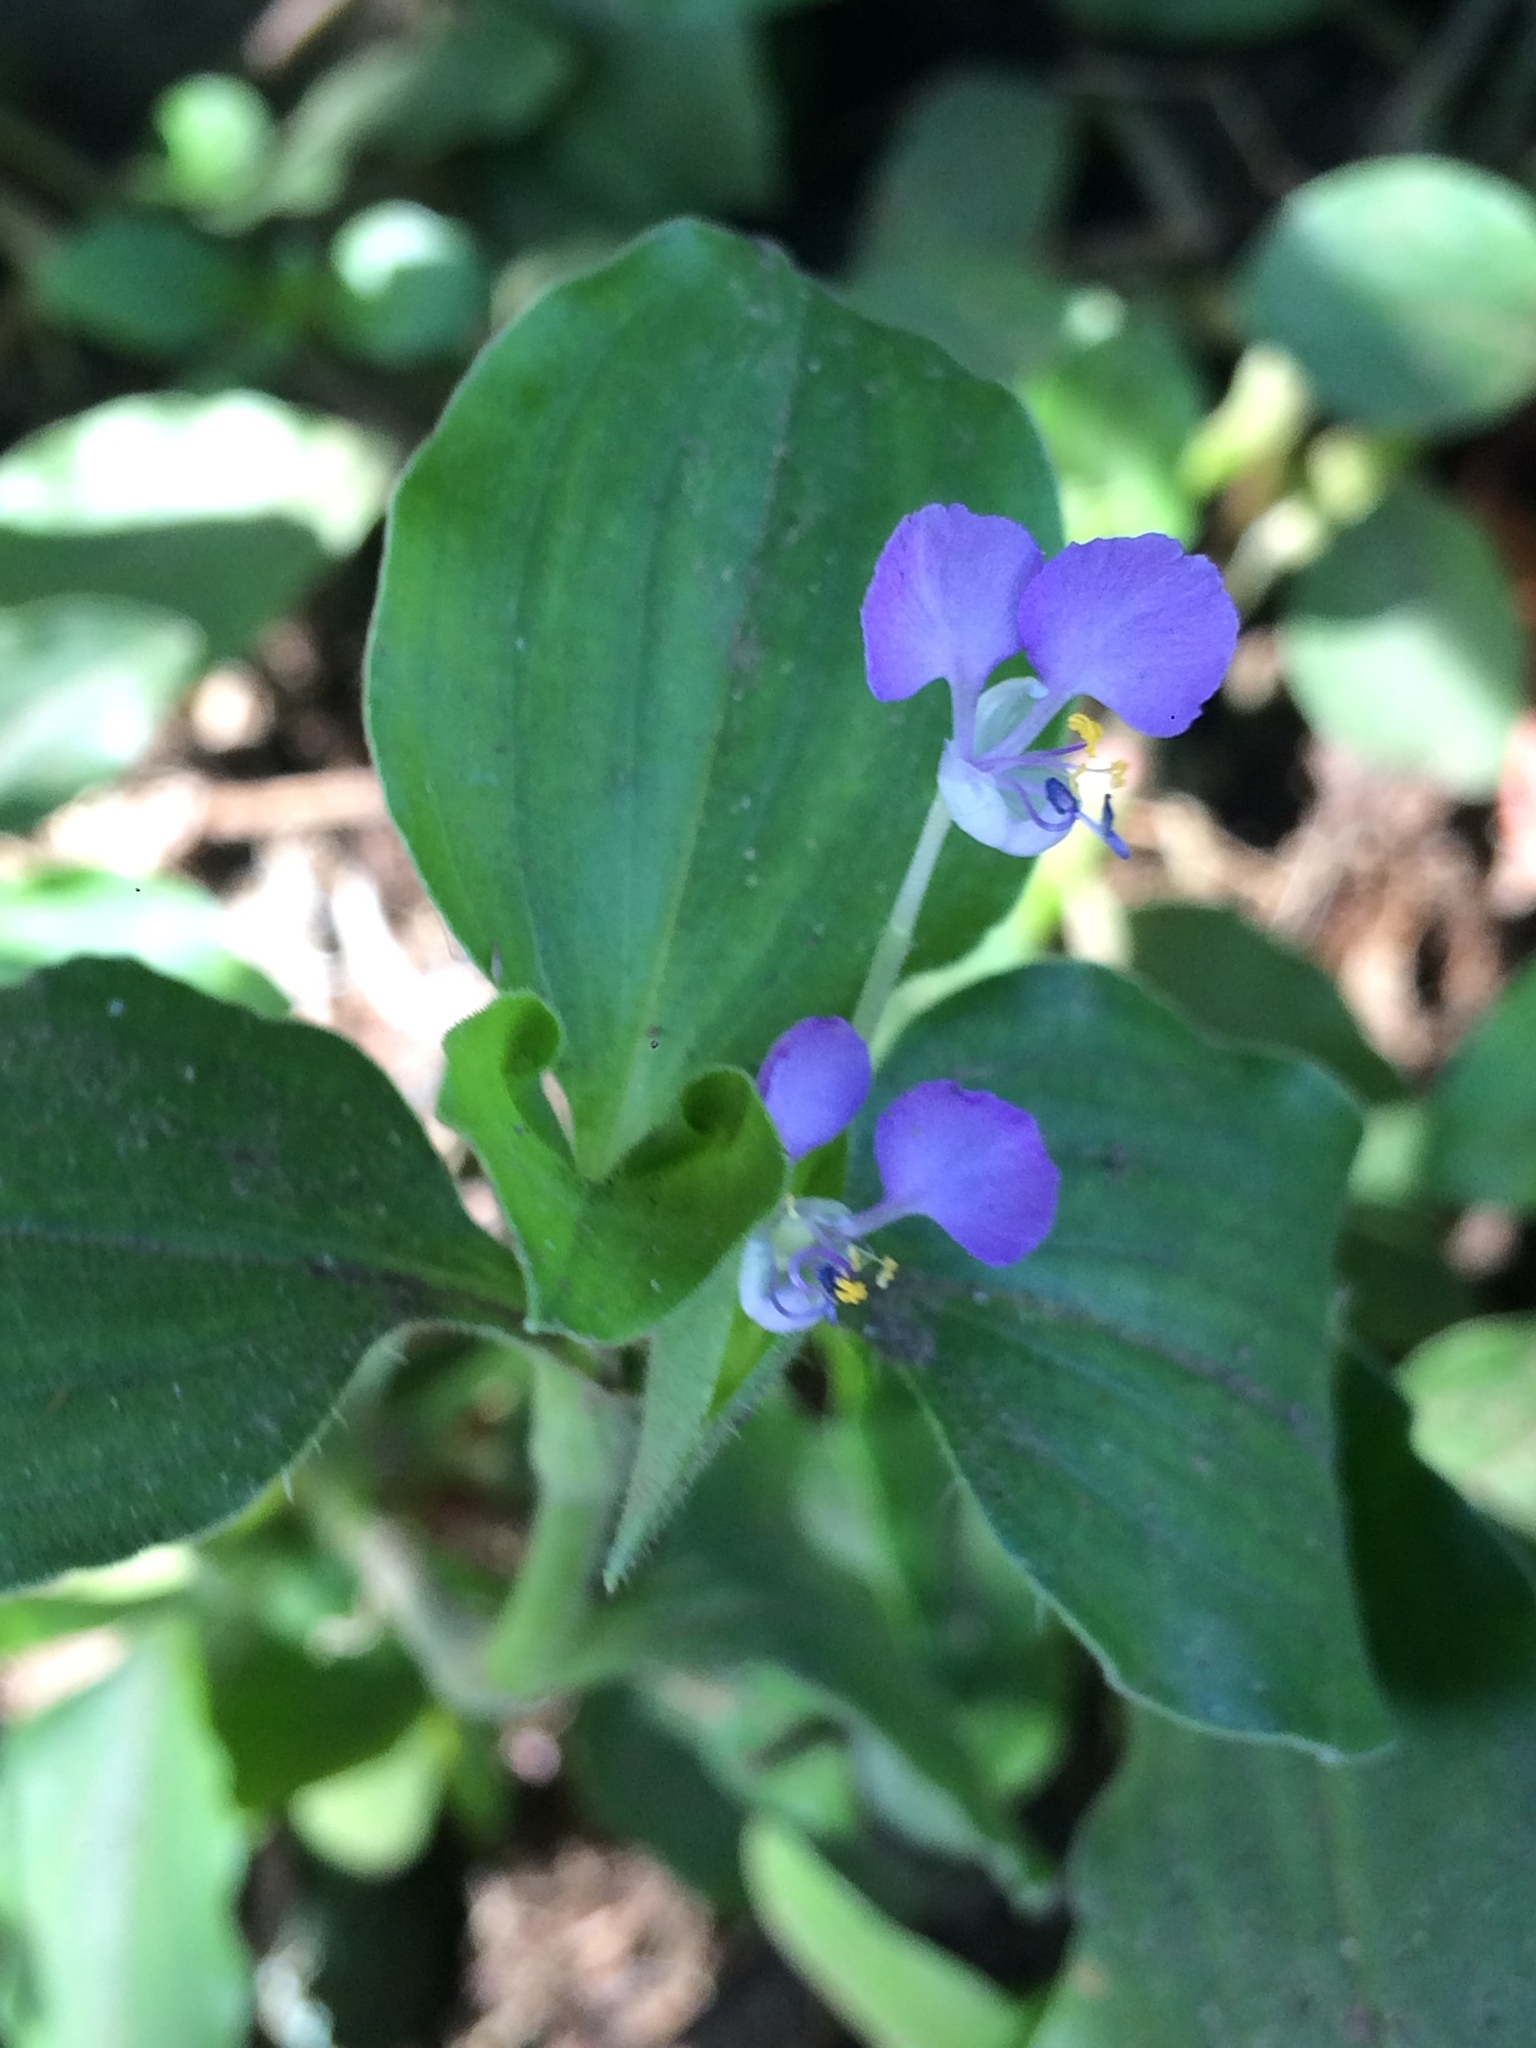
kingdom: Plantae
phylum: Tracheophyta
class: Liliopsida
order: Commelinales
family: Commelinaceae
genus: Commelina
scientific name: Commelina benghalensis
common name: Jio
